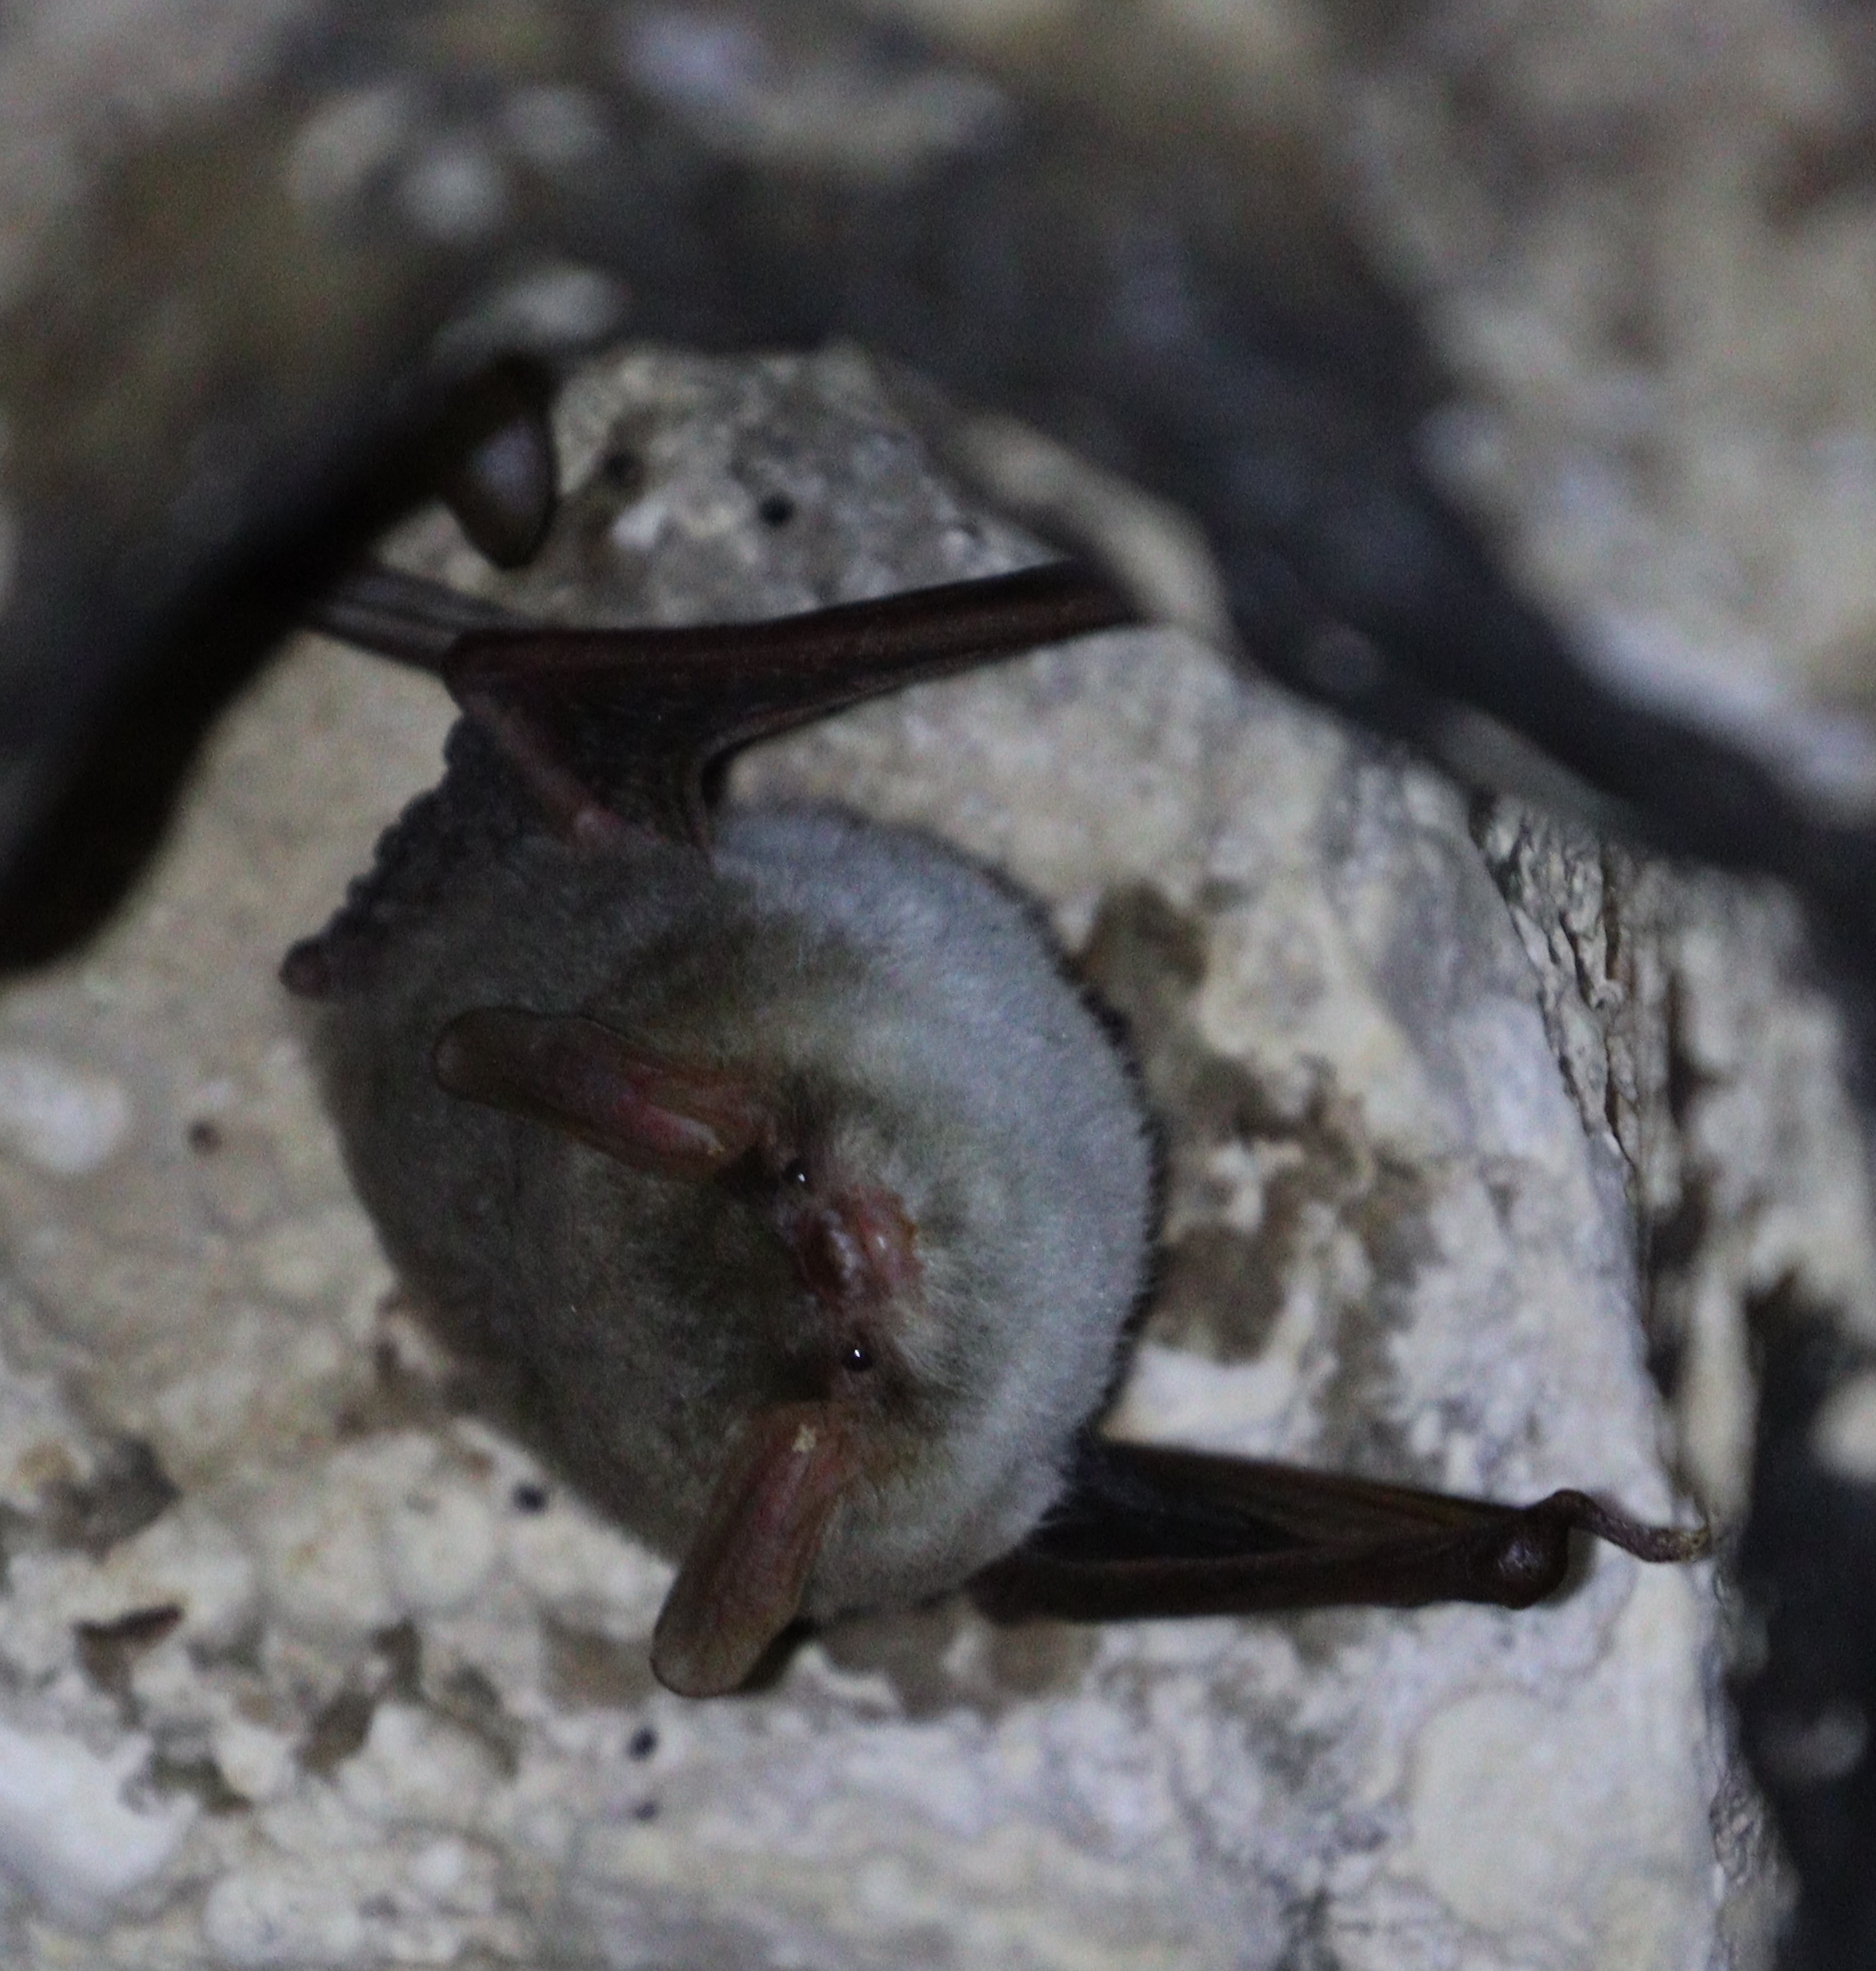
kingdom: Animalia
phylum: Chordata
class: Mammalia
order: Chiroptera
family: Vespertilionidae
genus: Myotis
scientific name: Myotis hoveli
